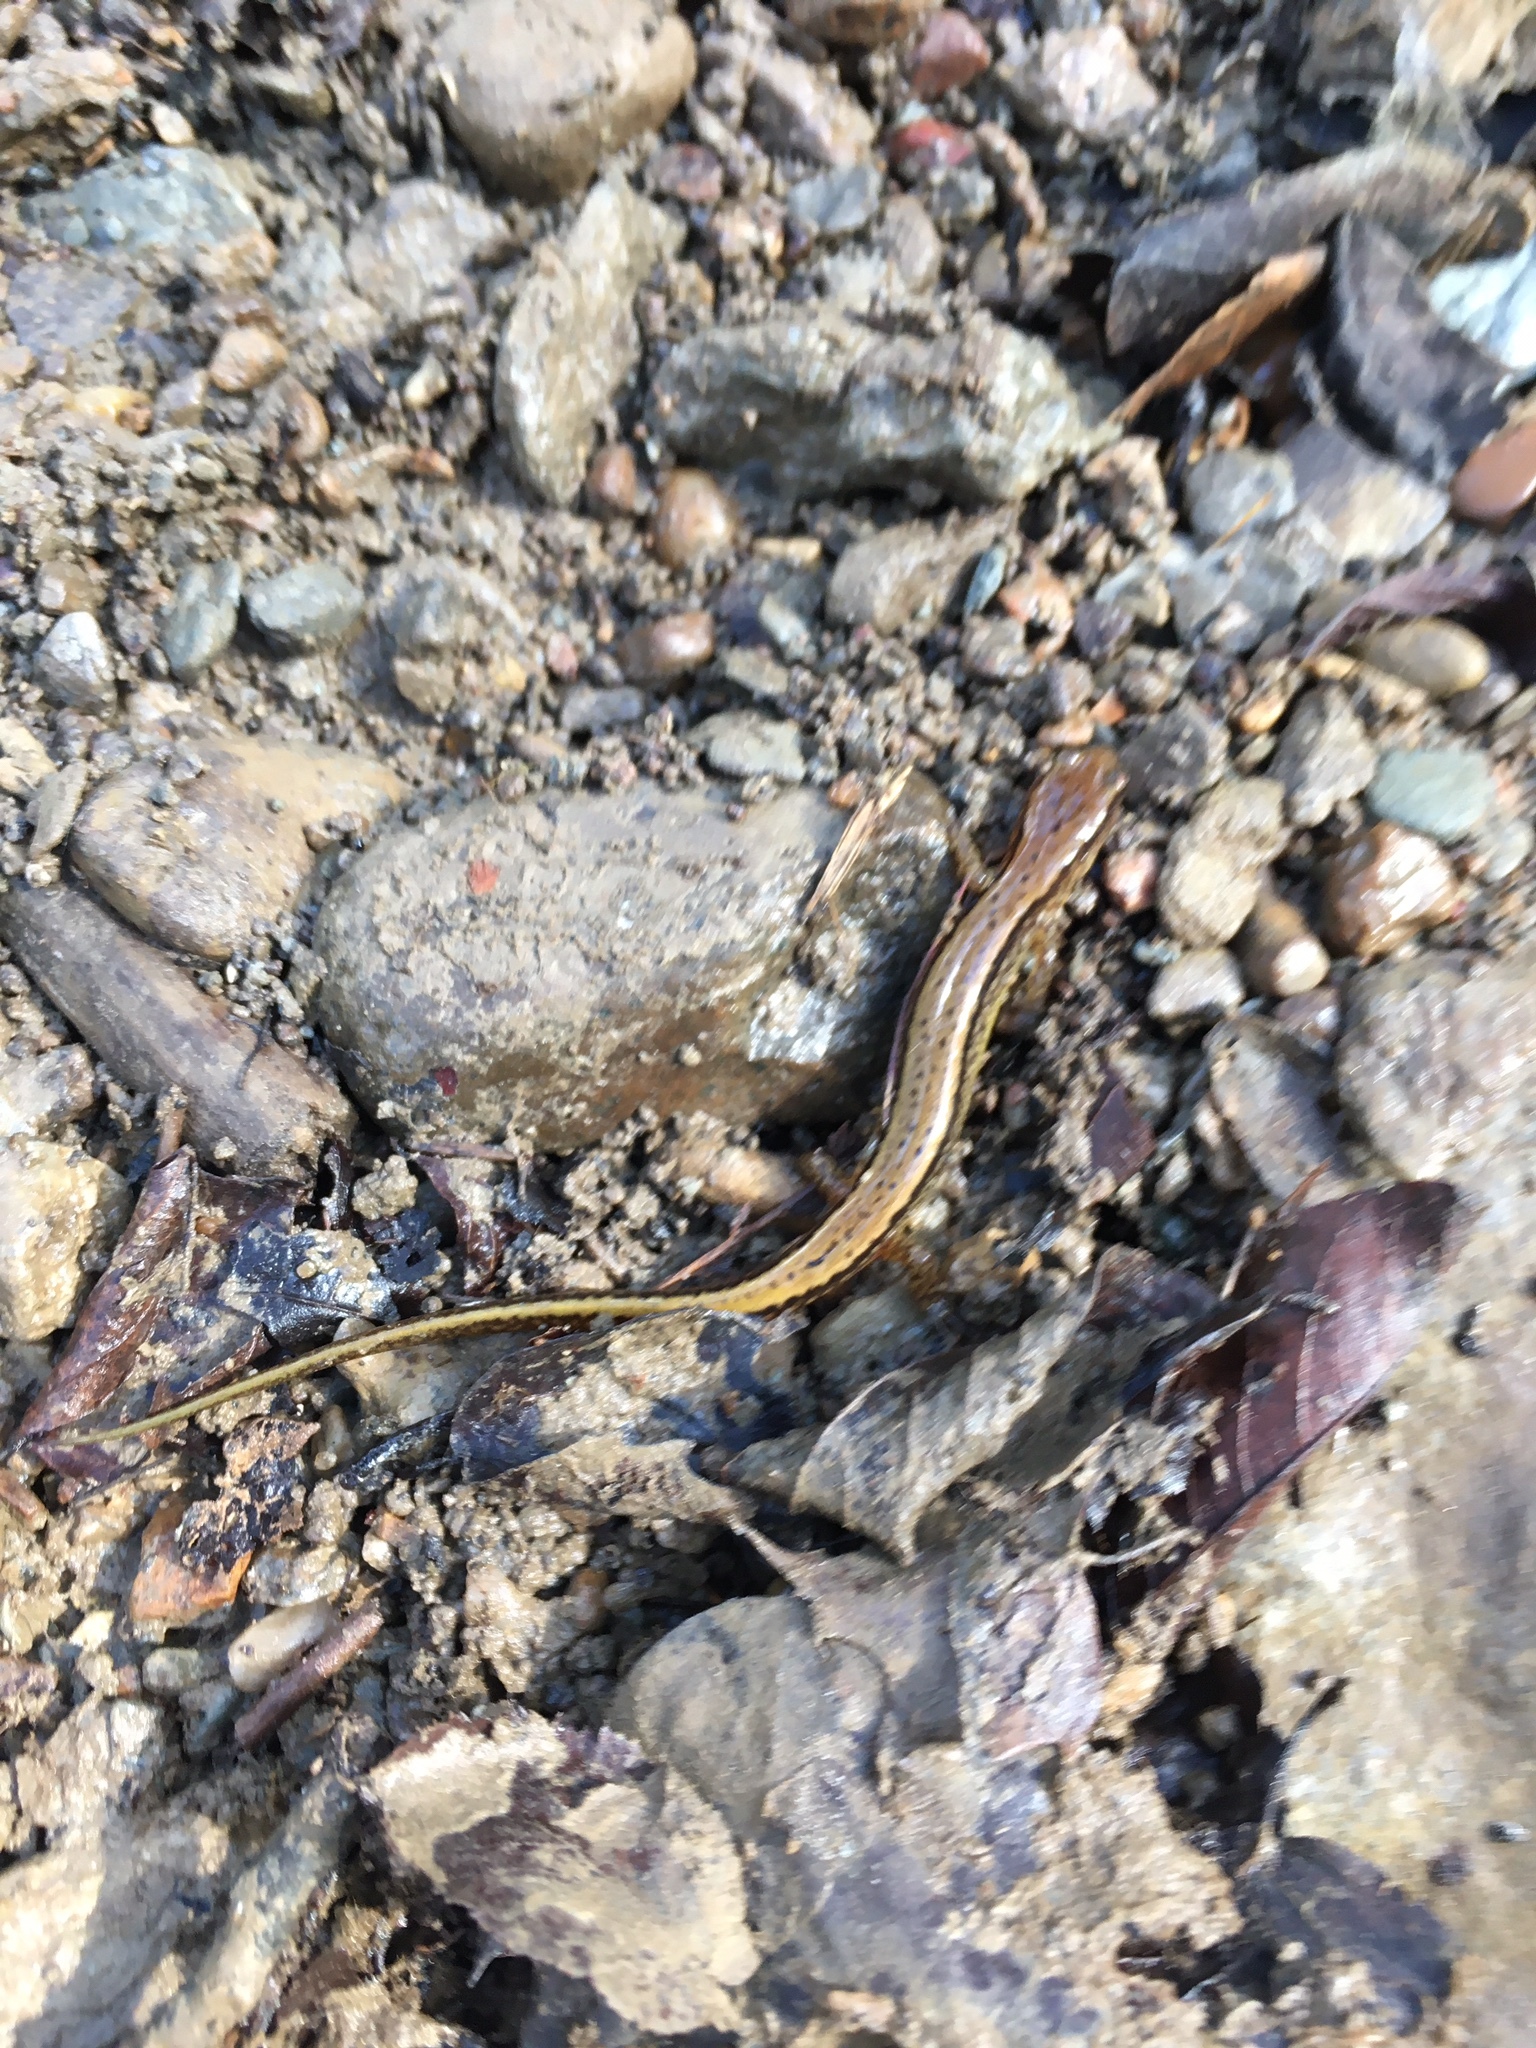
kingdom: Animalia
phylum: Chordata
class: Amphibia
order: Caudata
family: Plethodontidae
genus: Eurycea
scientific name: Eurycea cirrigera
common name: Southern two-lined salamander
